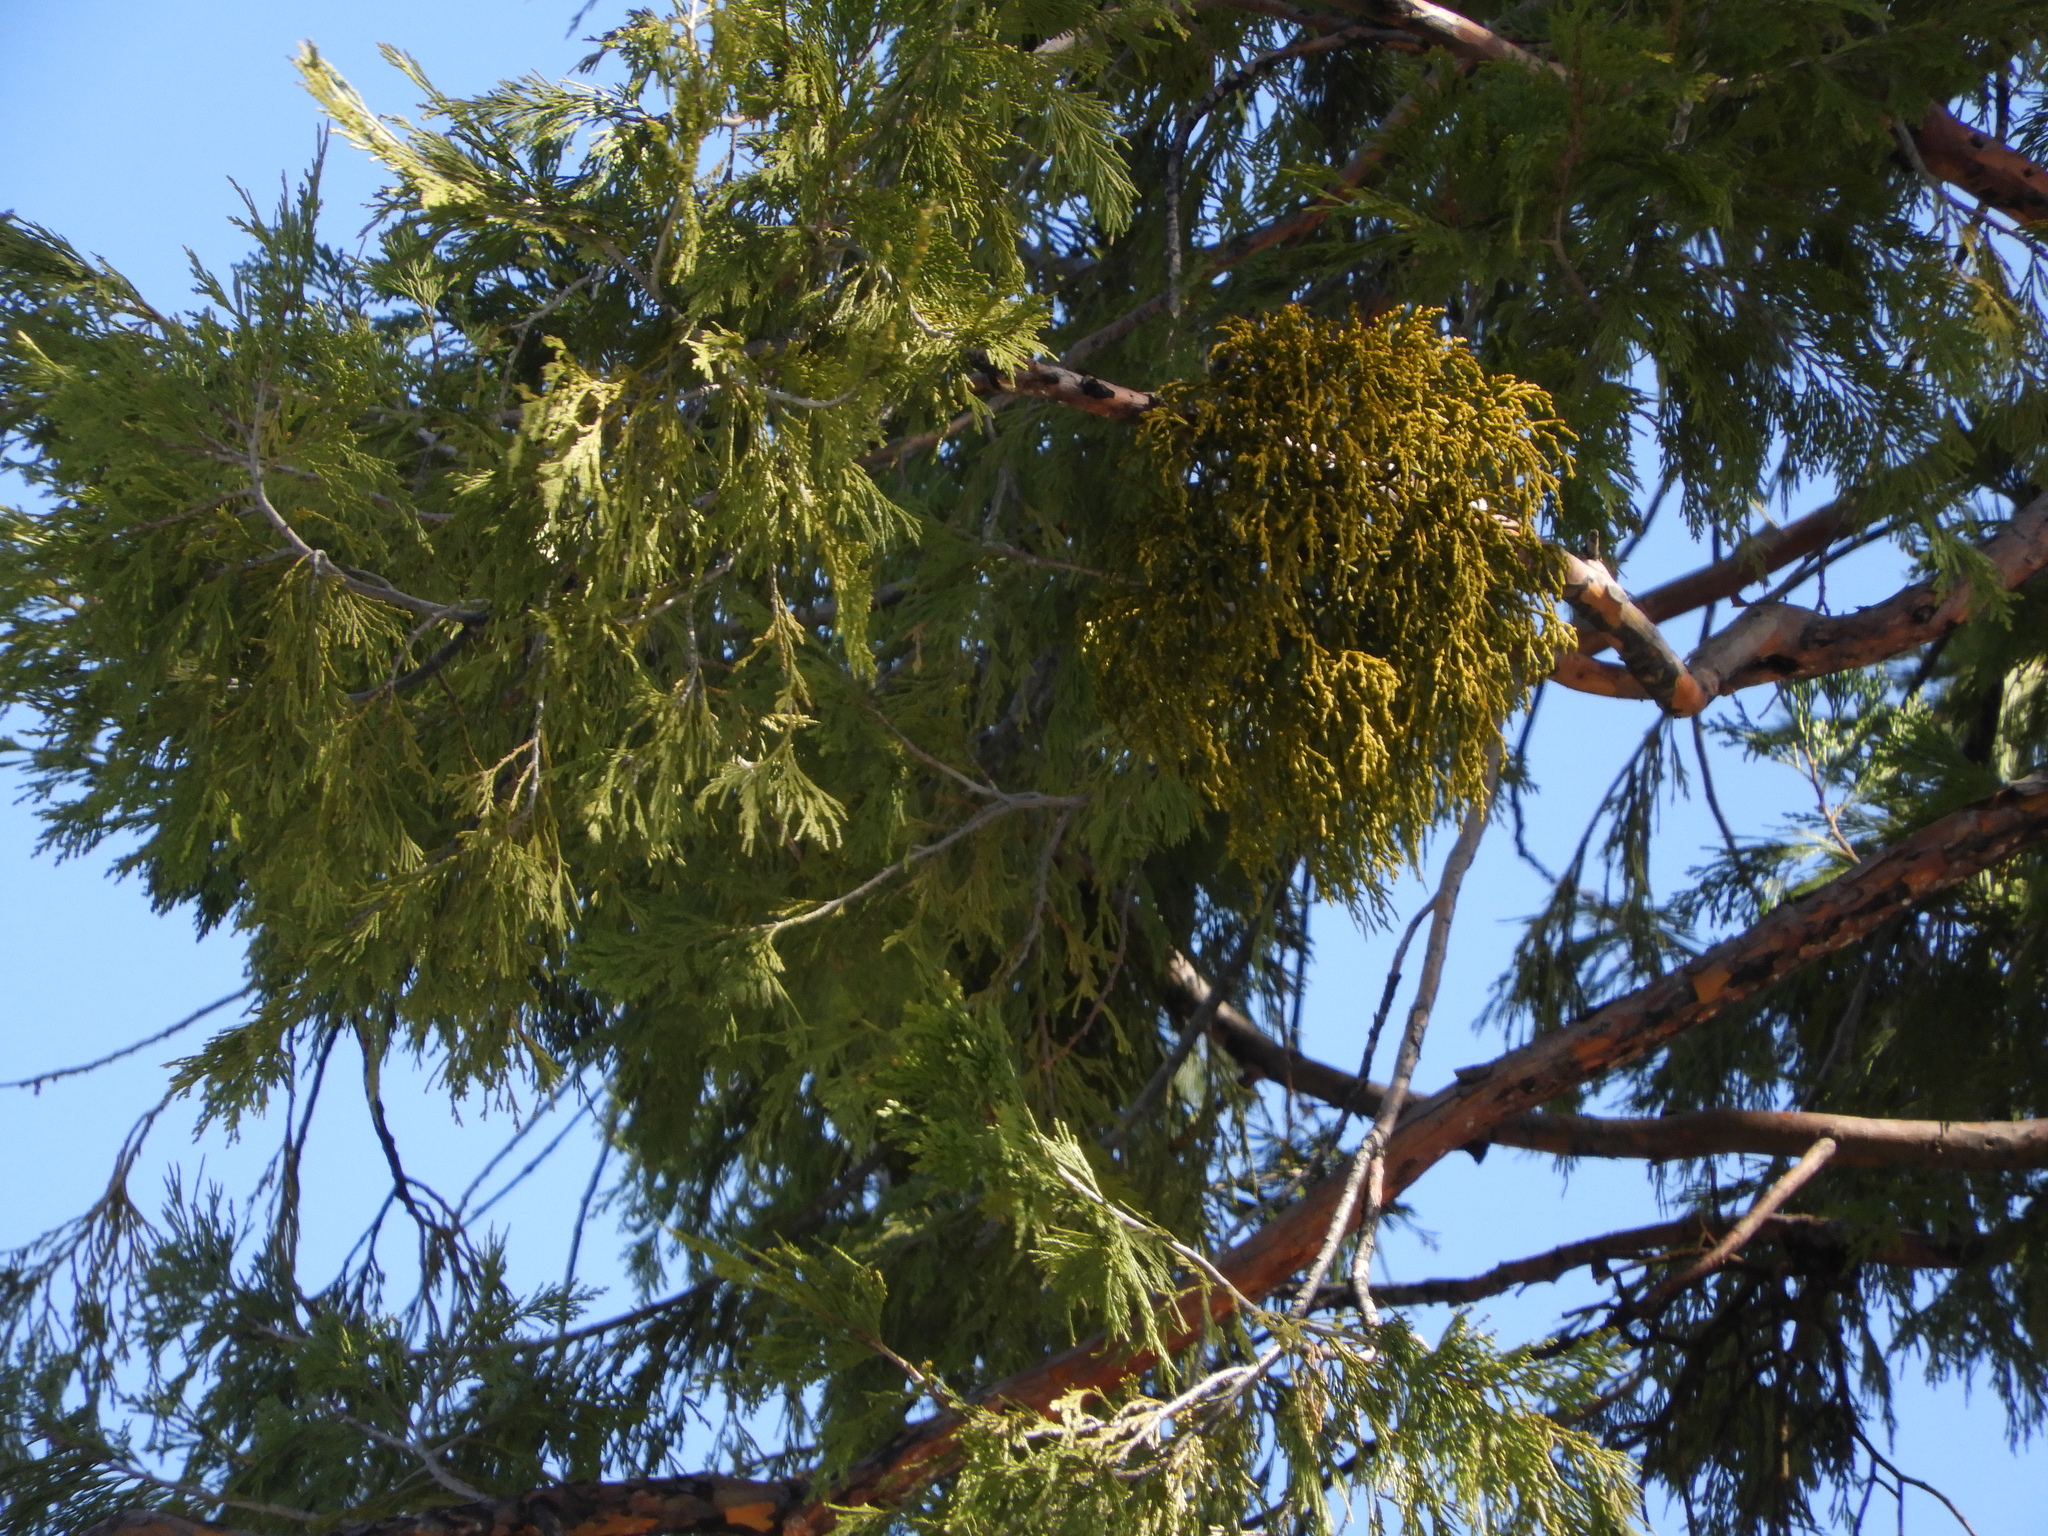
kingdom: Plantae
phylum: Tracheophyta
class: Magnoliopsida
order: Santalales
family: Viscaceae
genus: Phoradendron
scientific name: Phoradendron juniperinum
